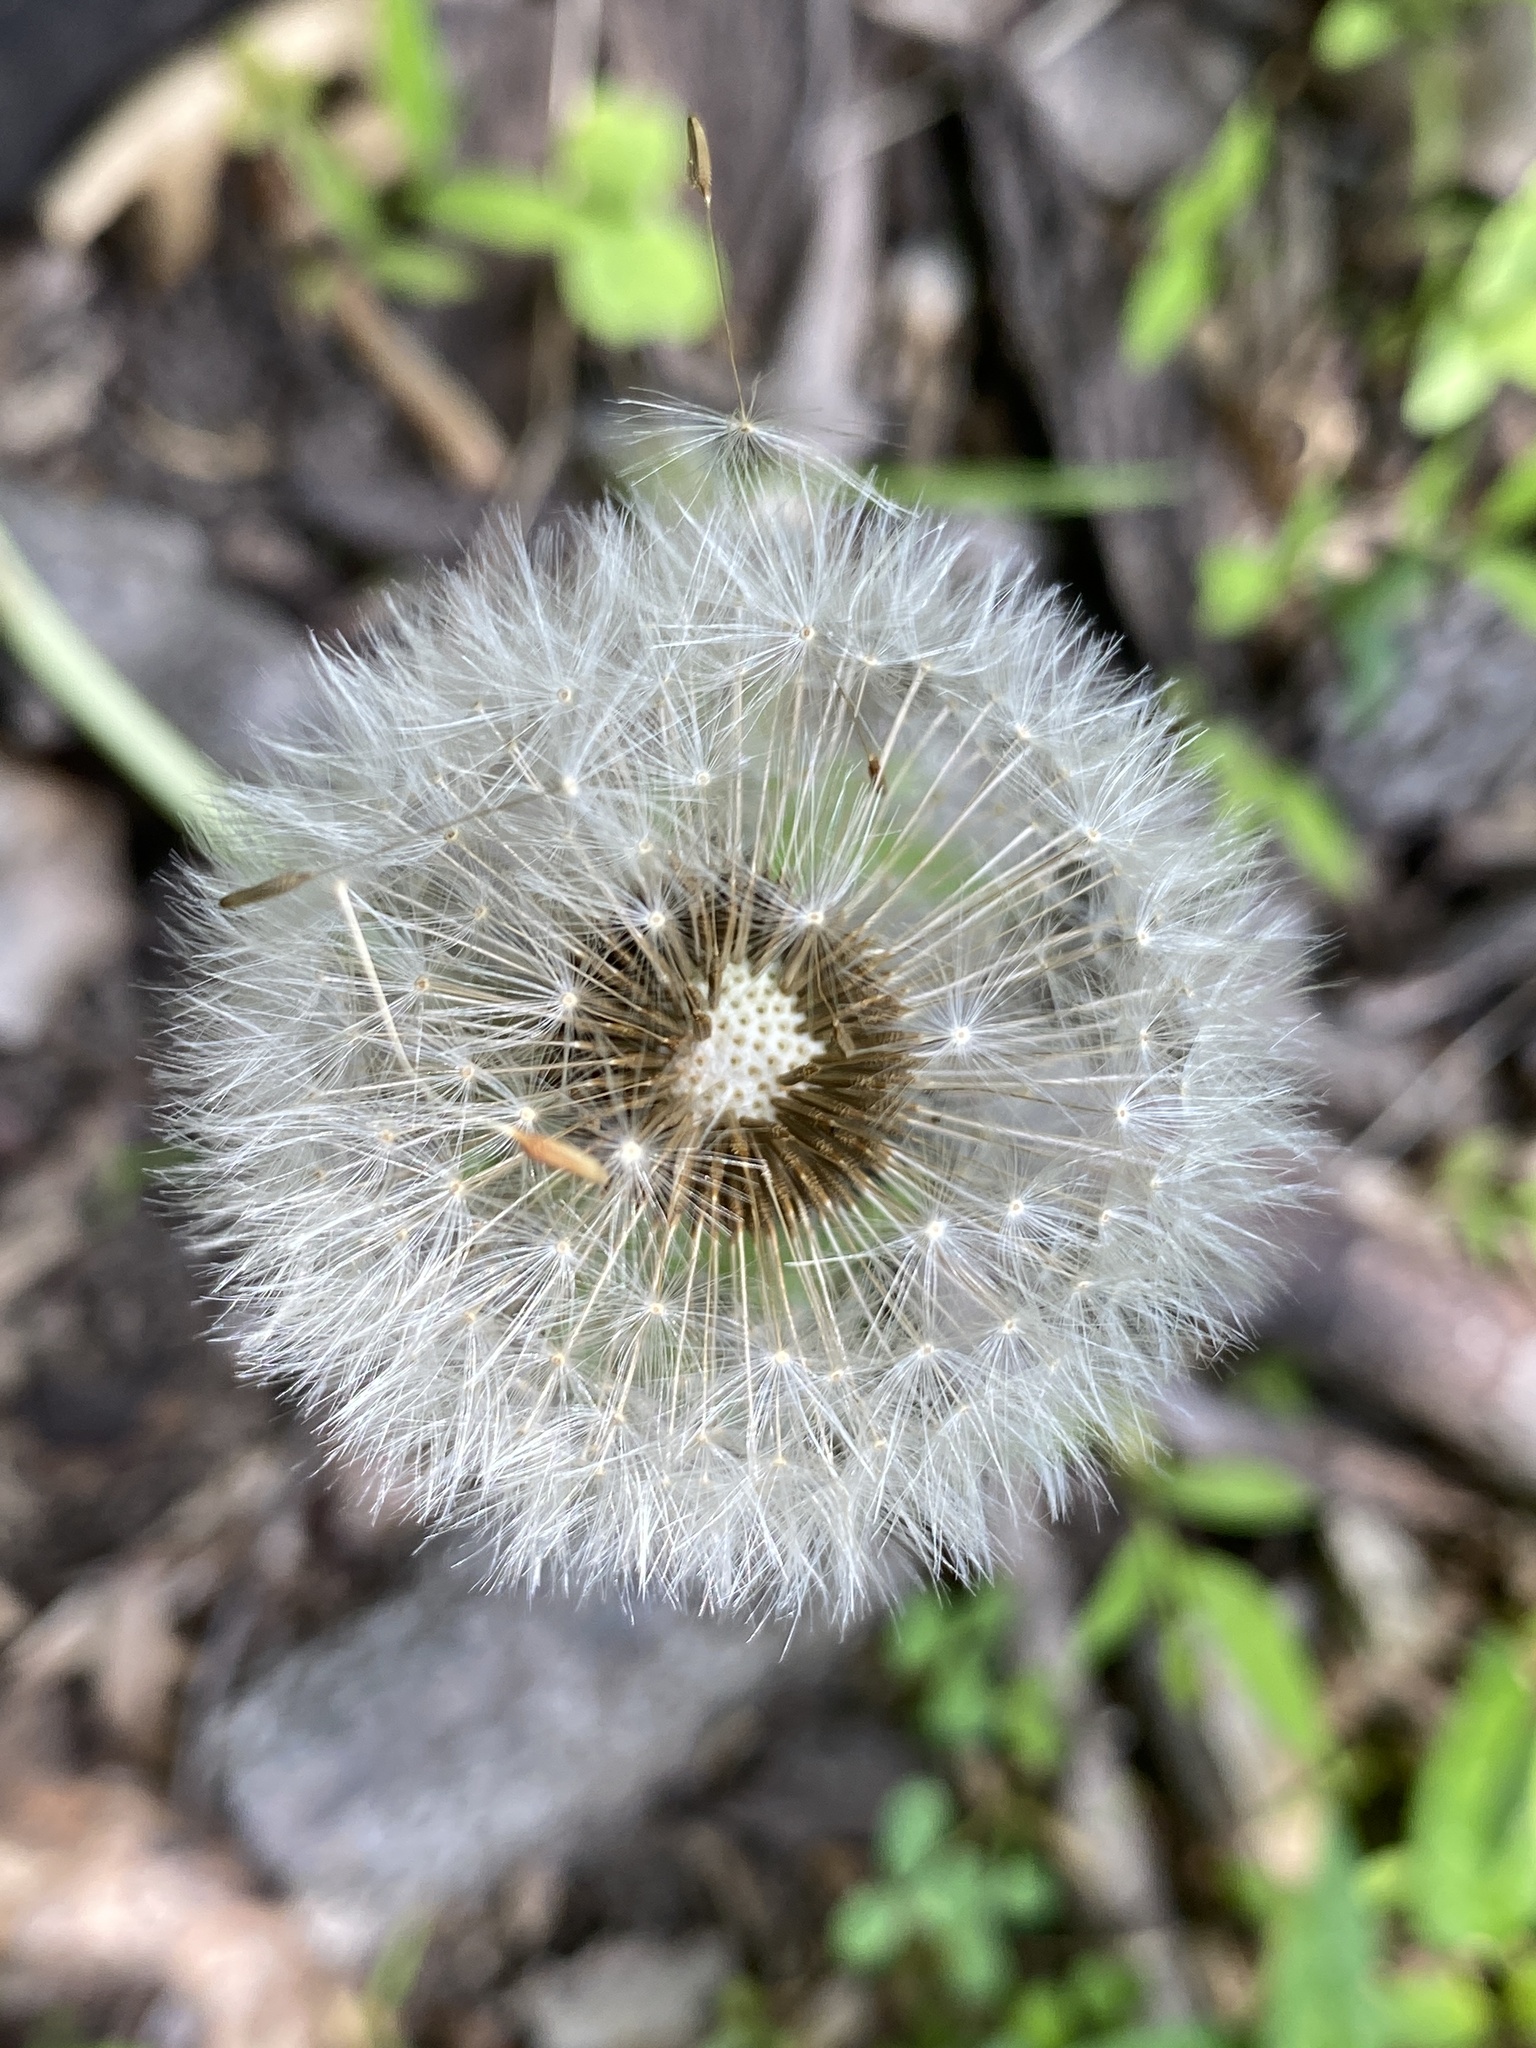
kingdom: Plantae
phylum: Tracheophyta
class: Magnoliopsida
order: Asterales
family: Asteraceae
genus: Taraxacum
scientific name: Taraxacum officinale
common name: Common dandelion
